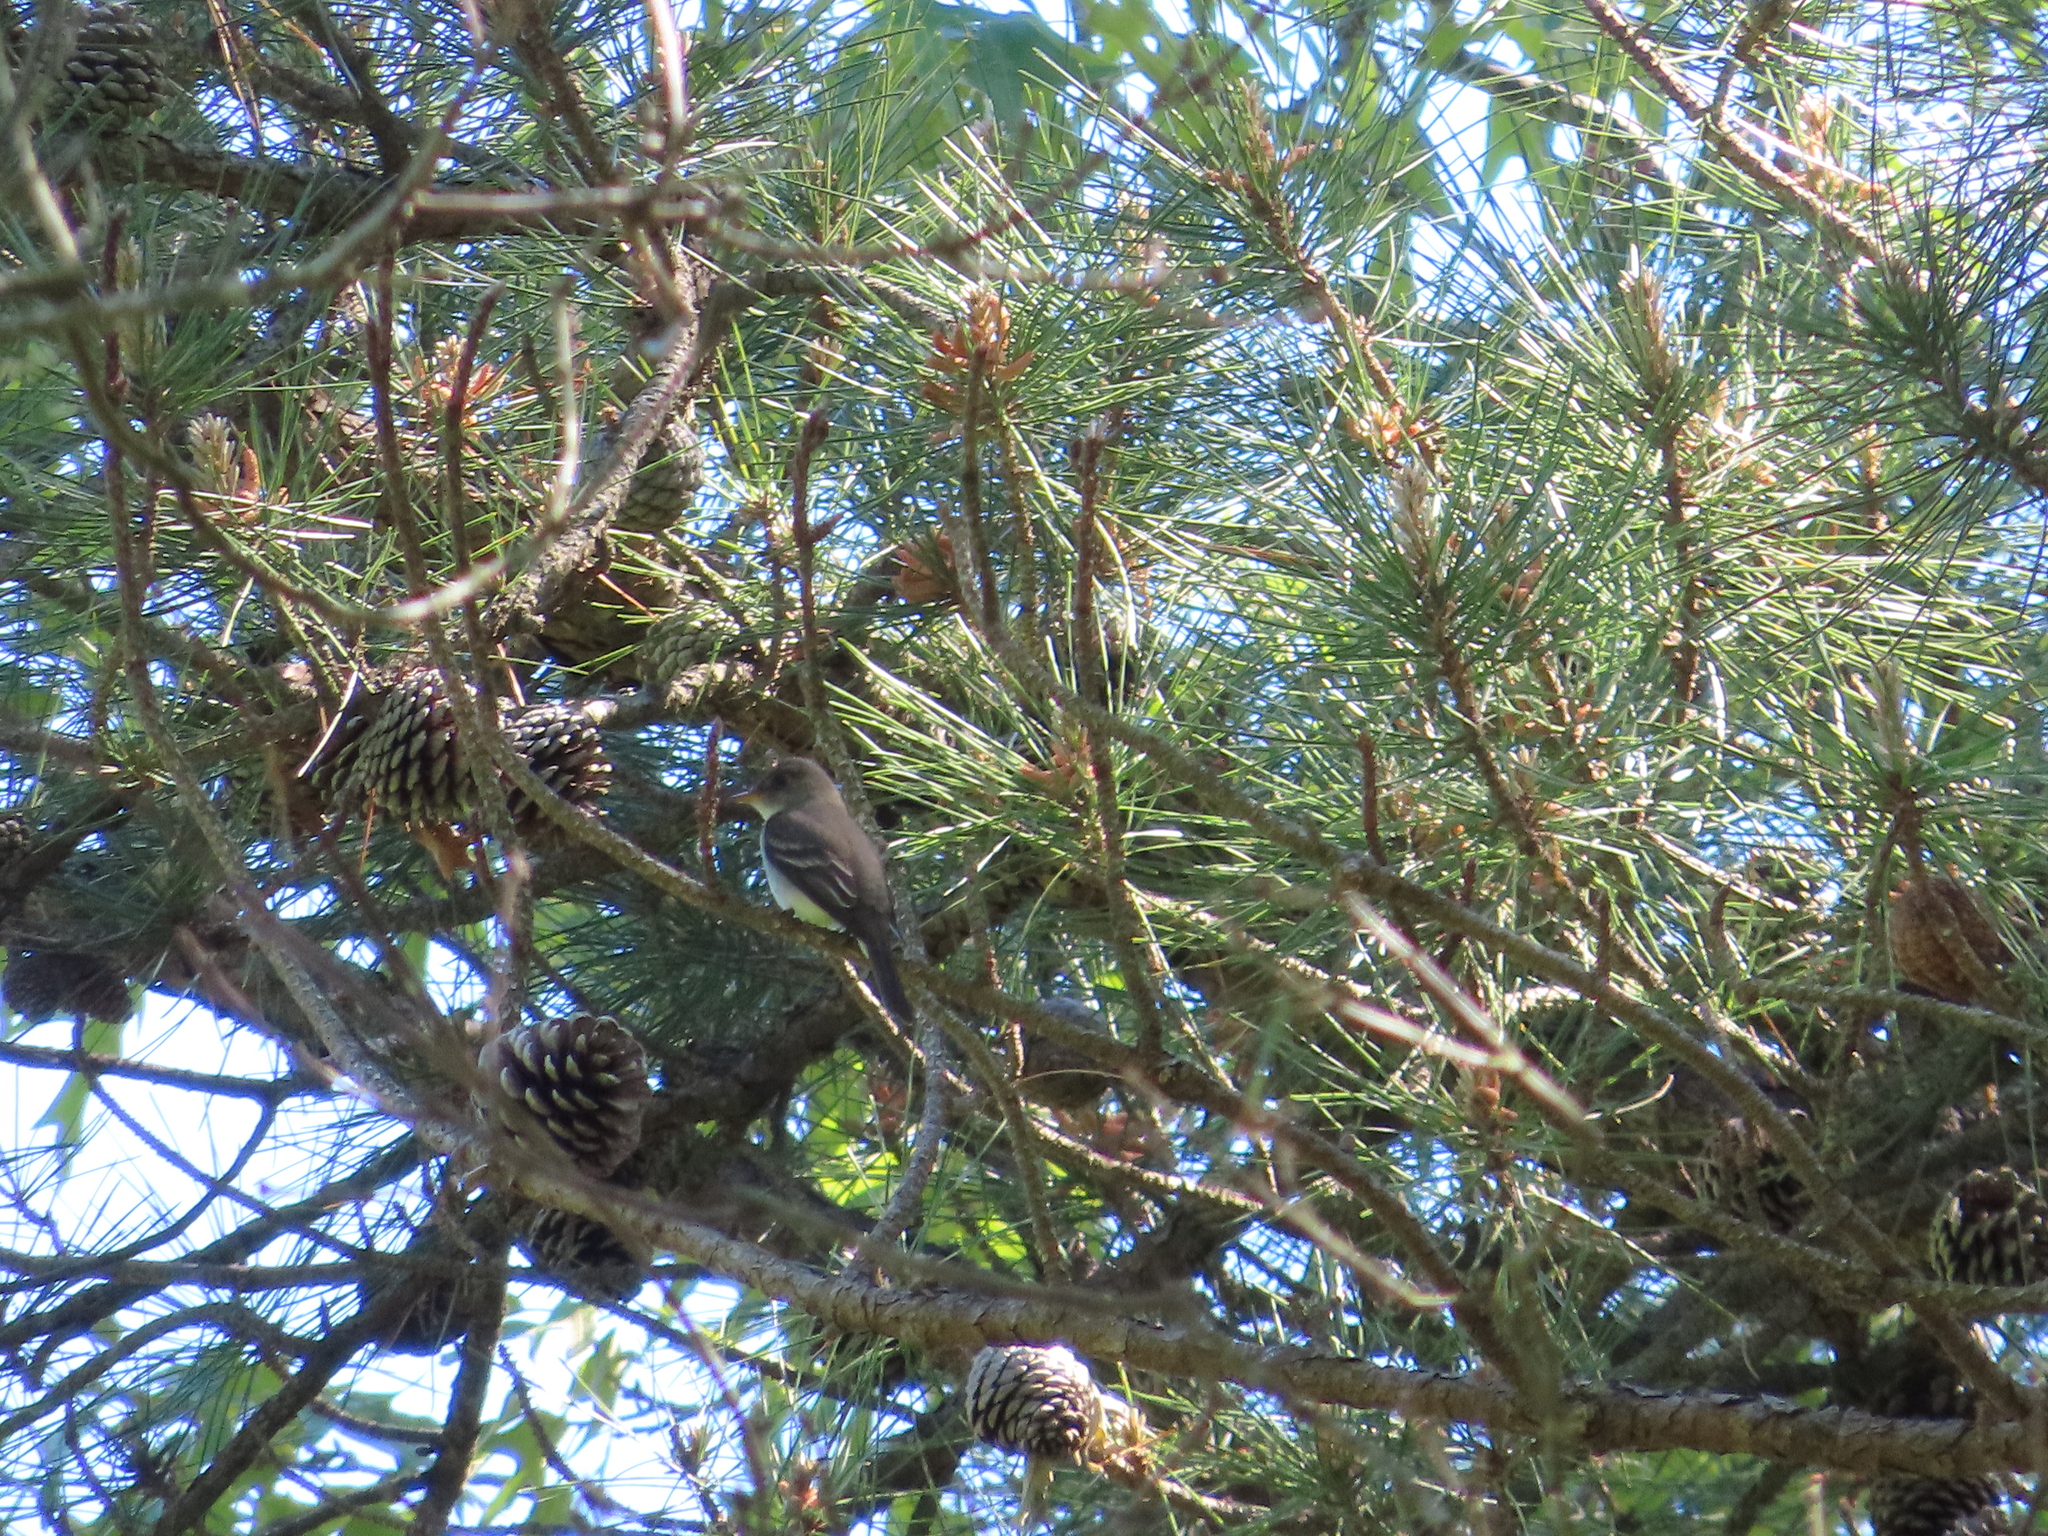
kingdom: Animalia
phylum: Chordata
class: Aves
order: Passeriformes
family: Tyrannidae
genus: Contopus
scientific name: Contopus virens
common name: Eastern wood-pewee
